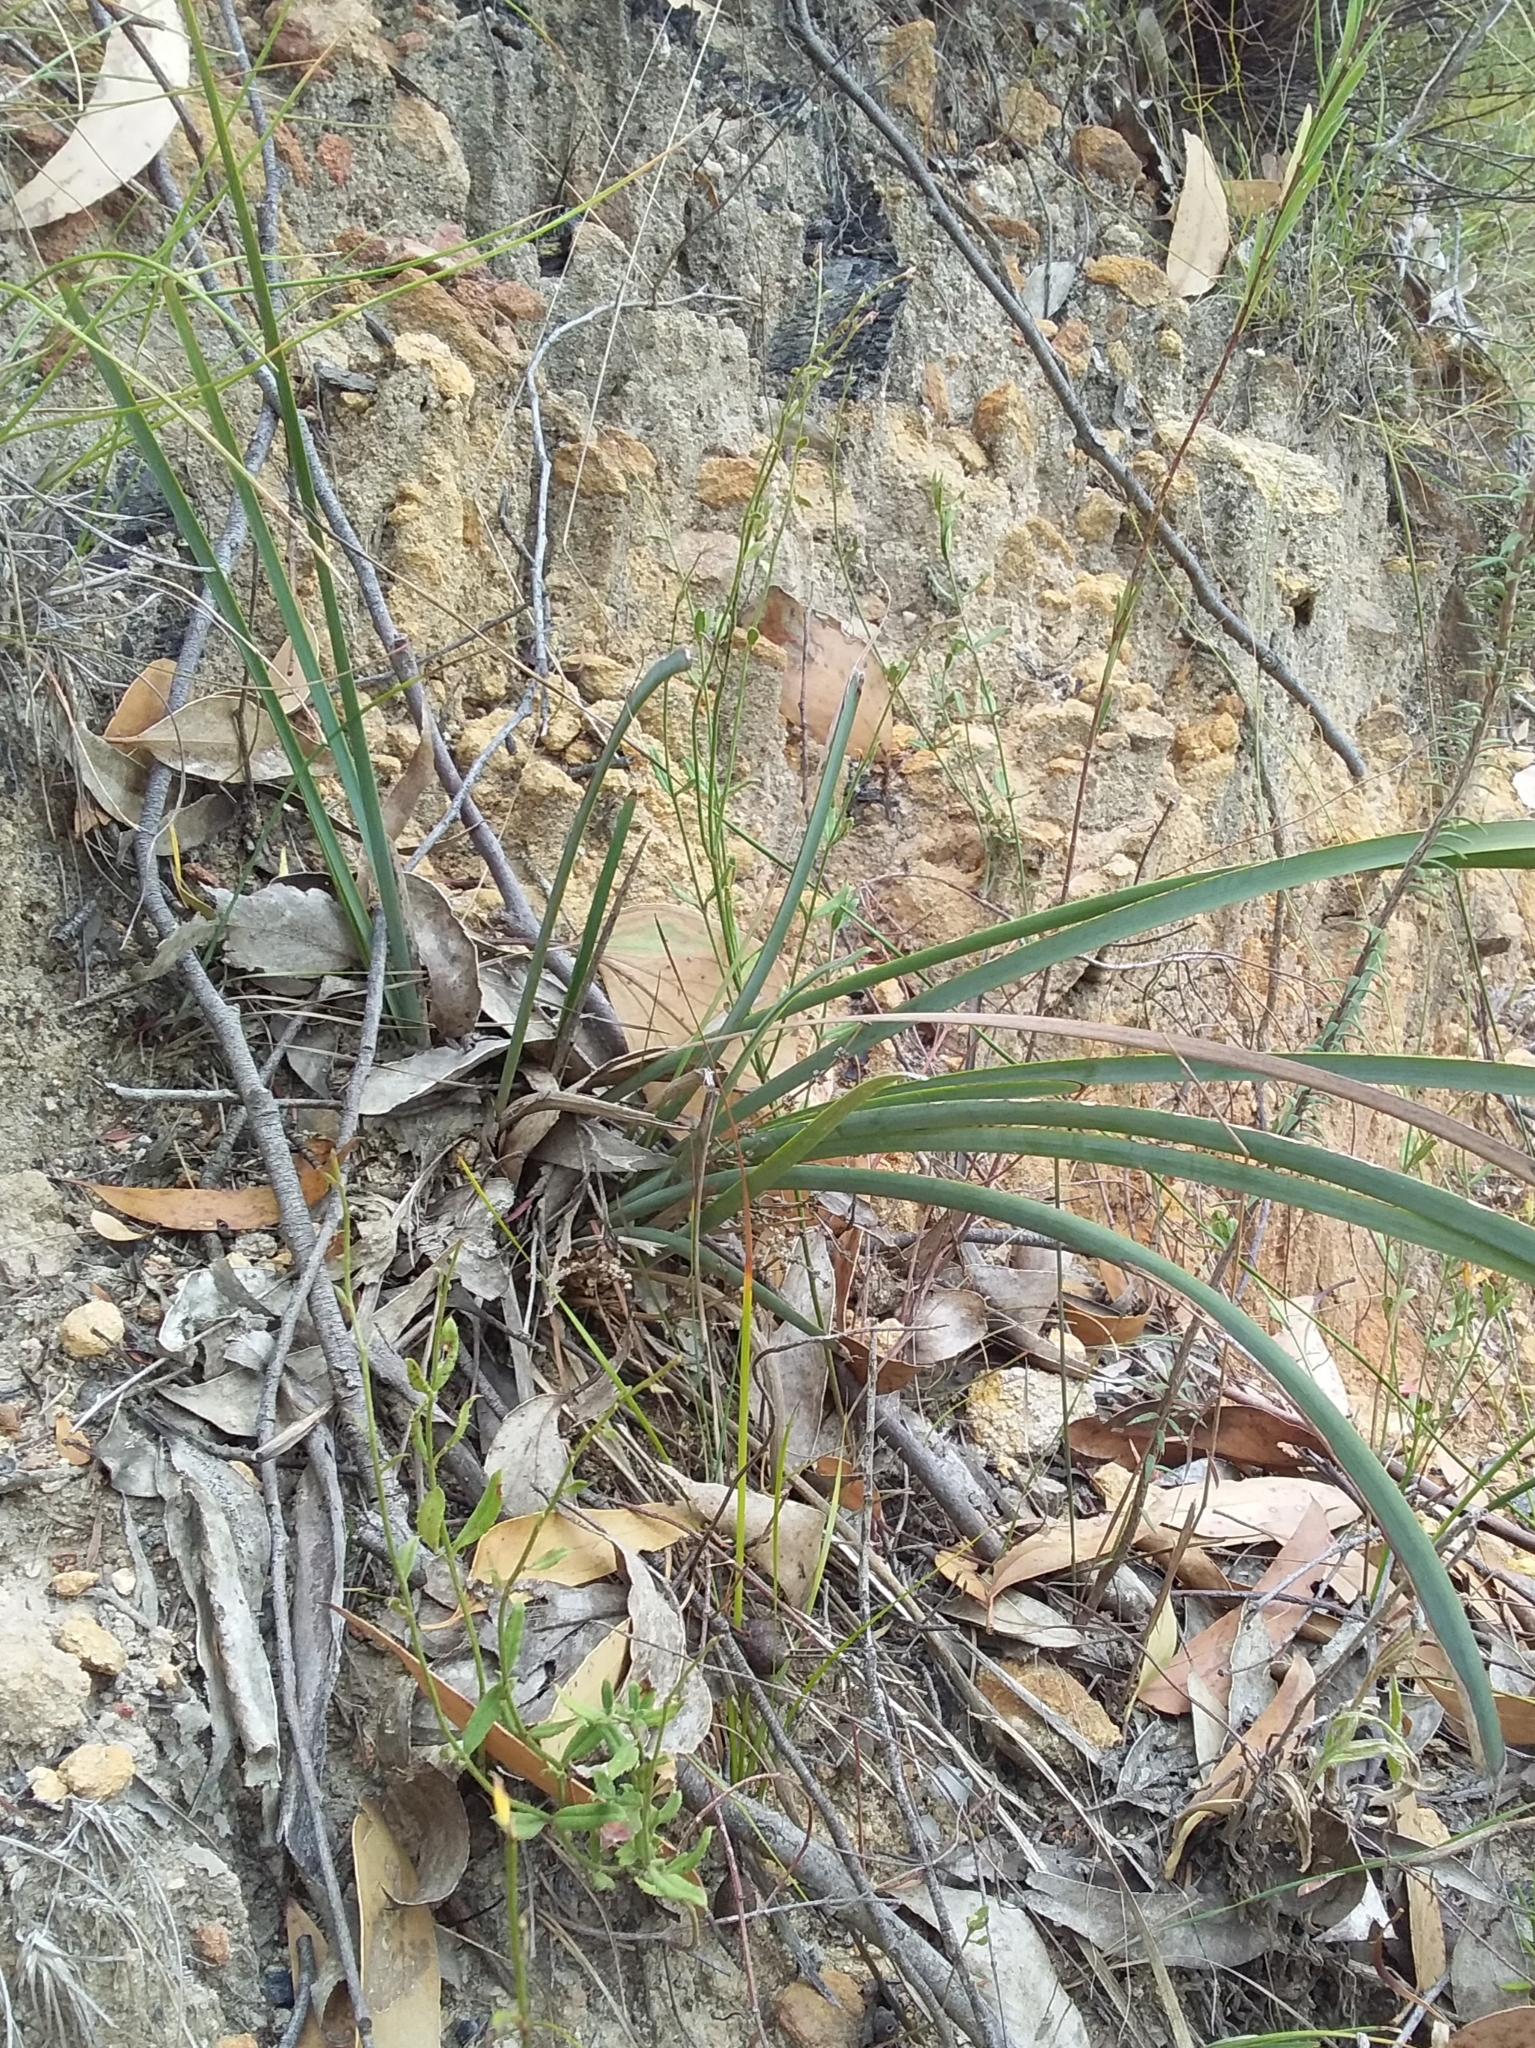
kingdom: Plantae
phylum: Tracheophyta
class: Liliopsida
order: Asparagales
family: Asparagaceae
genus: Lomandra
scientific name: Lomandra multiflora
